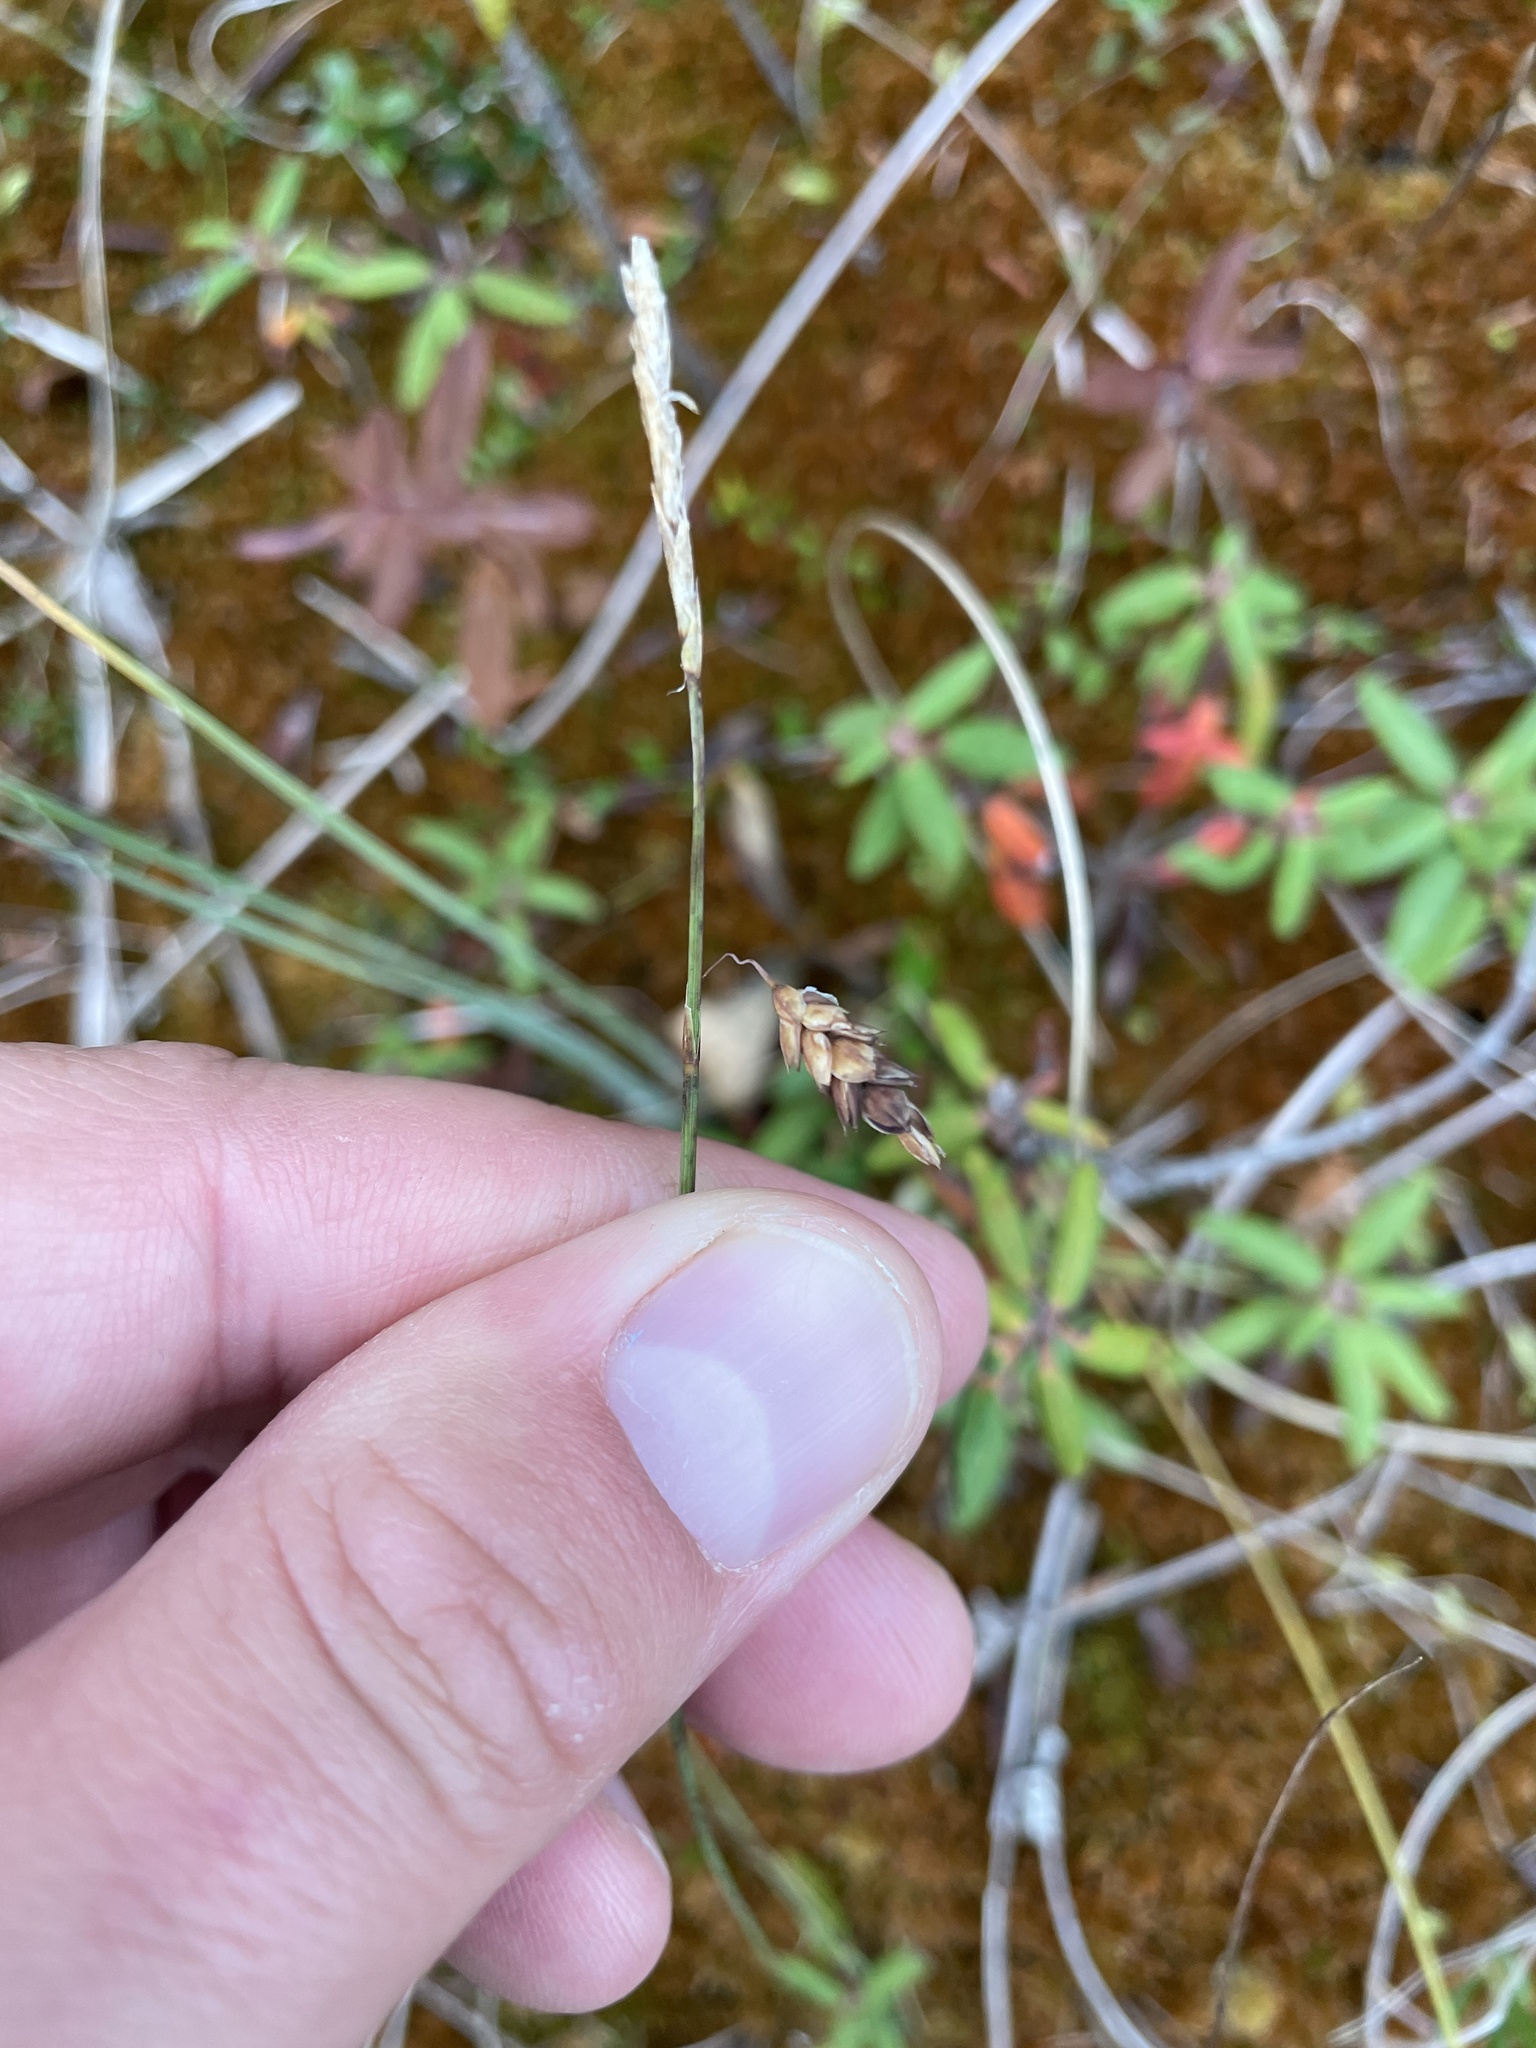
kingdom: Plantae
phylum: Tracheophyta
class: Liliopsida
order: Poales
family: Cyperaceae
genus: Carex
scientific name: Carex limosa
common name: Bog sedge
